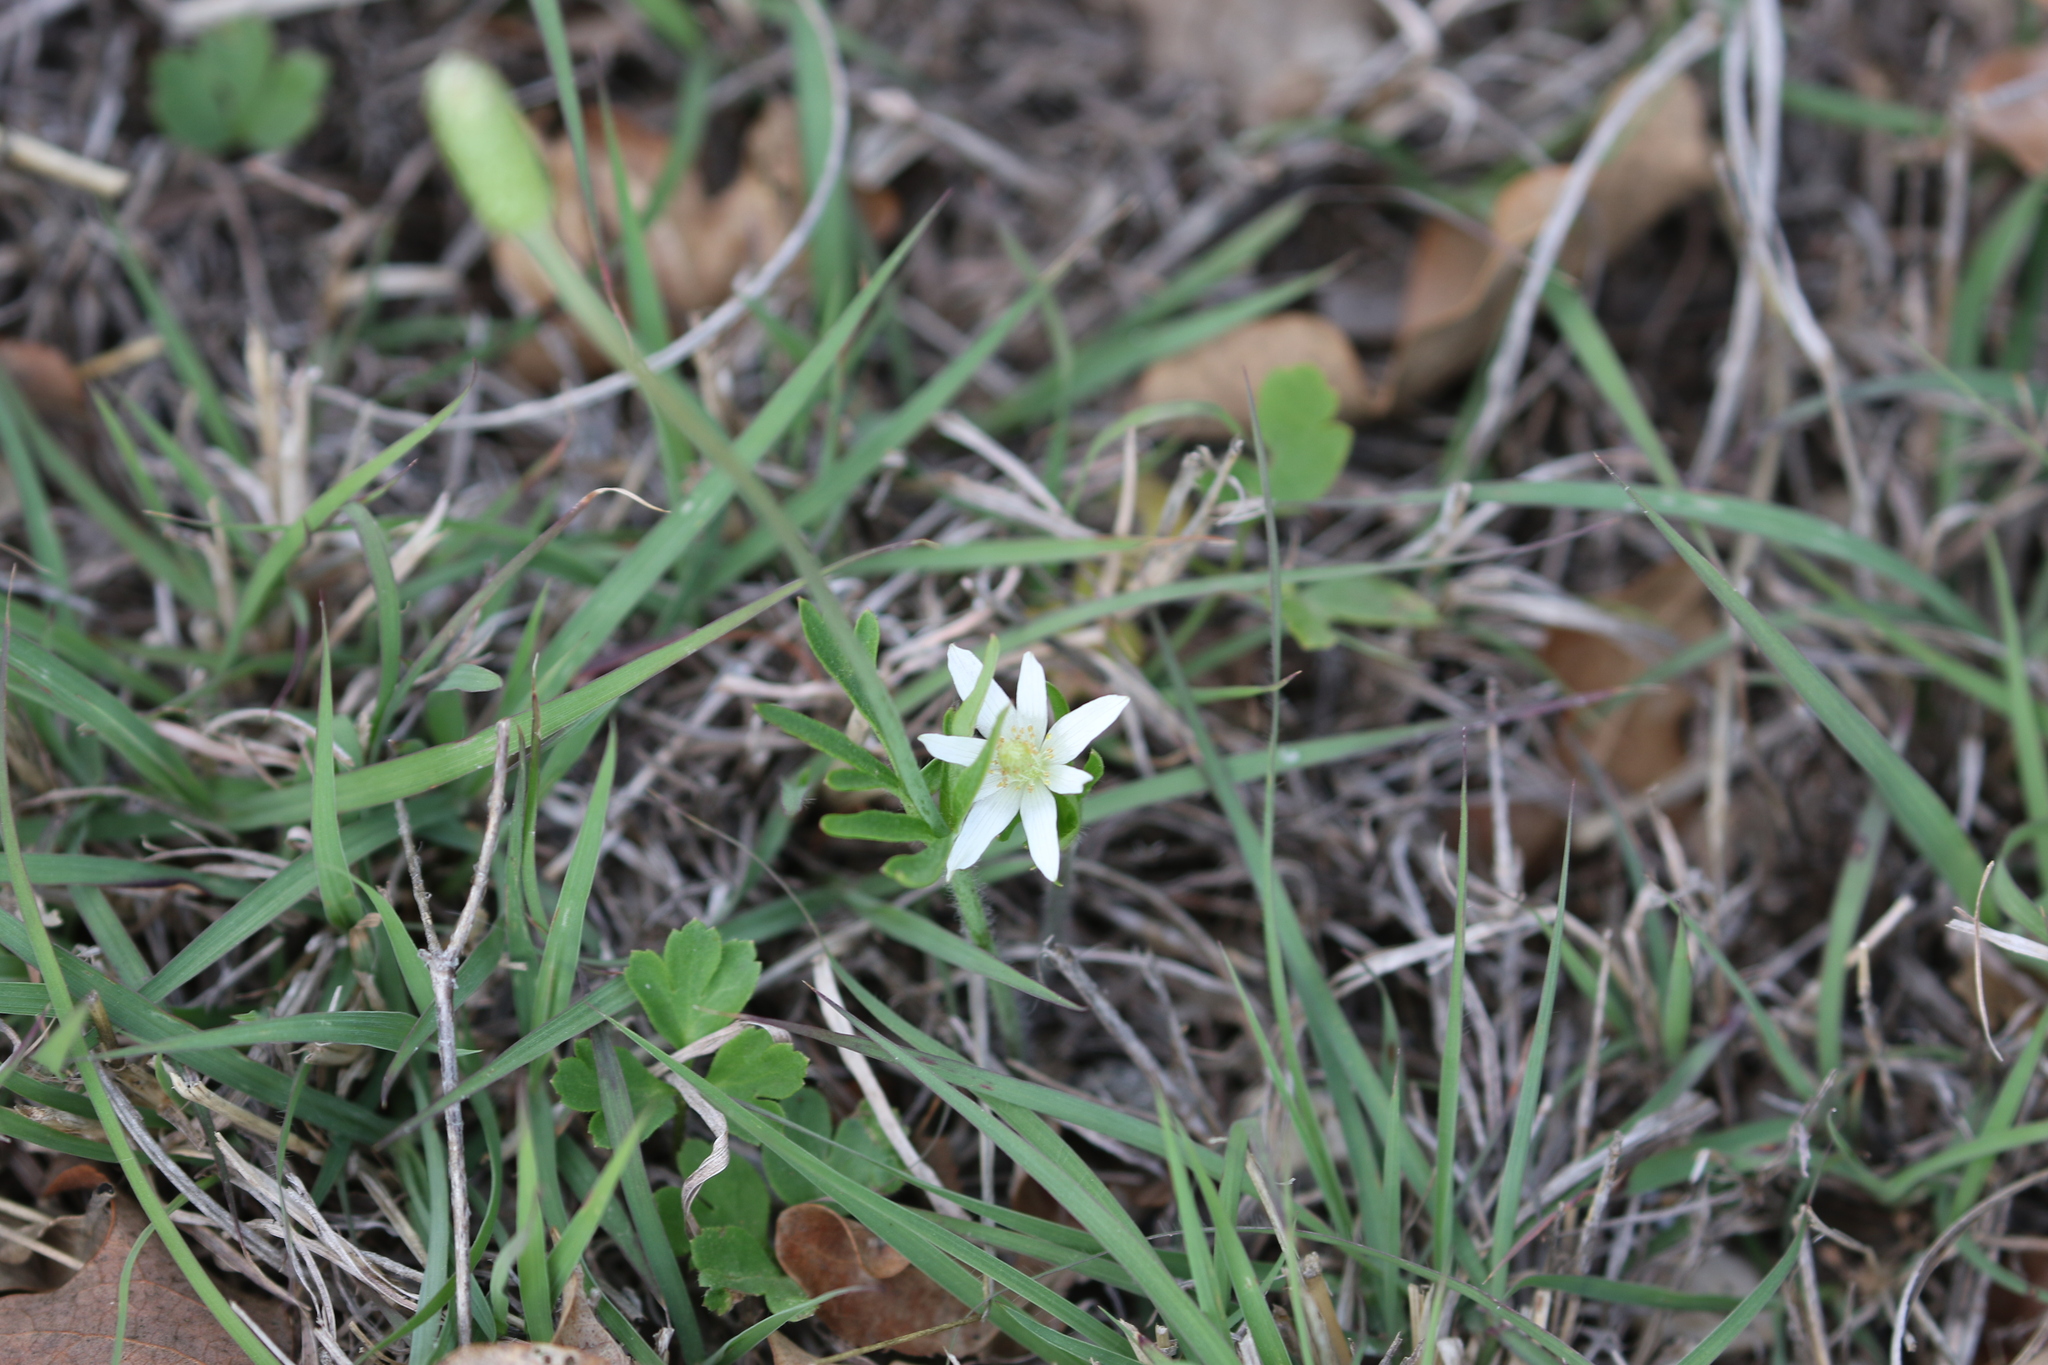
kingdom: Plantae
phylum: Tracheophyta
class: Magnoliopsida
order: Ranunculales
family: Ranunculaceae
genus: Anemone
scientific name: Anemone berlandieri
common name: Ten-petal anemone
